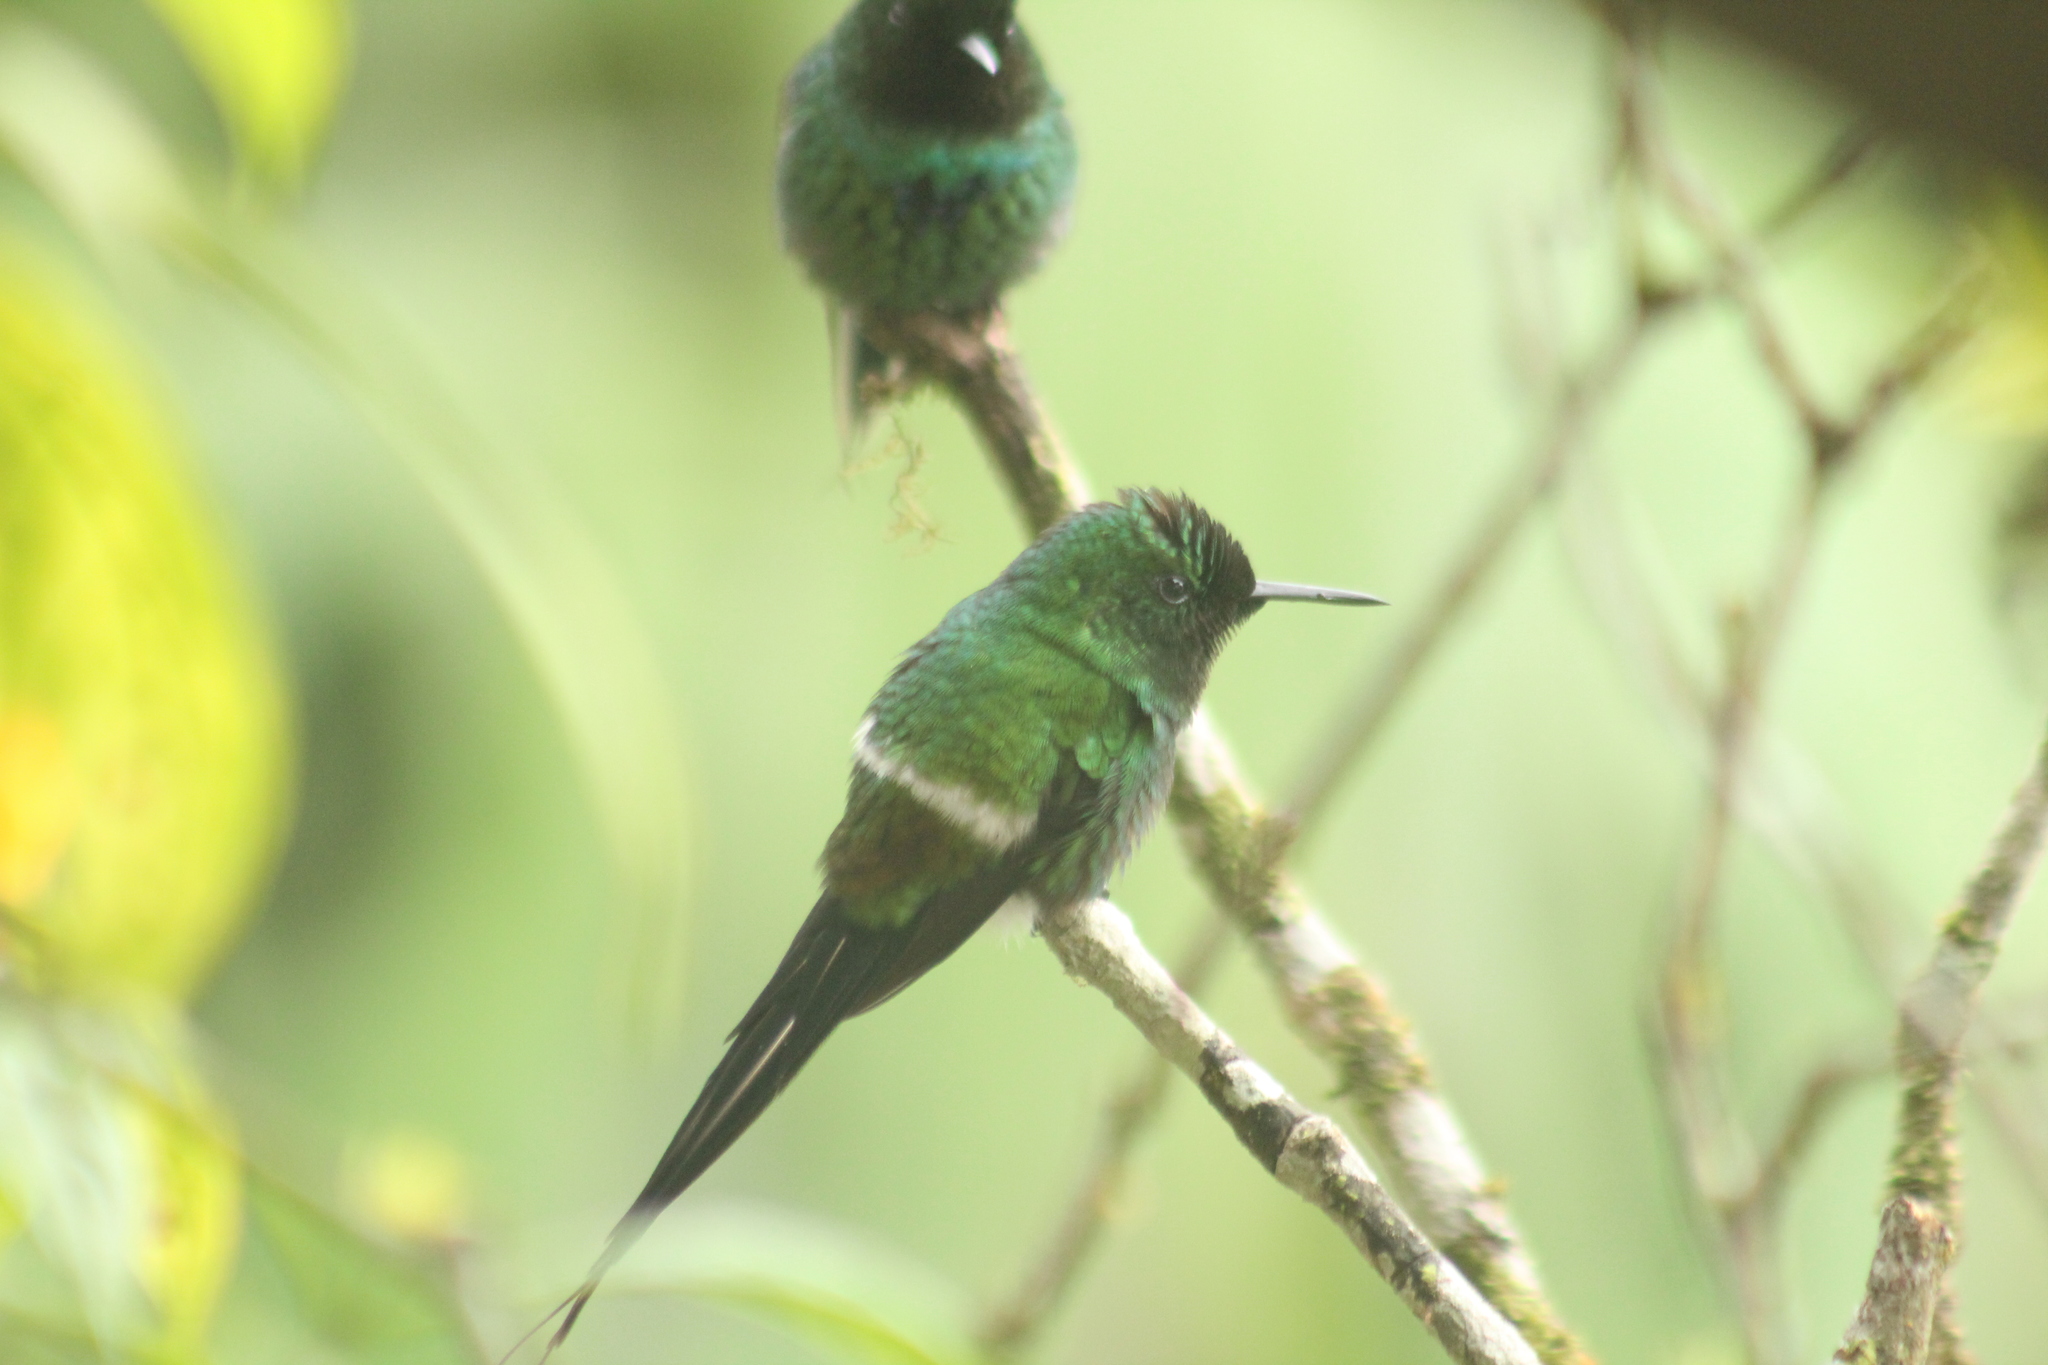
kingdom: Animalia
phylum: Chordata
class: Aves
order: Apodiformes
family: Trochilidae
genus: Discosura
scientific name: Discosura conversii
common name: Green thorntail
